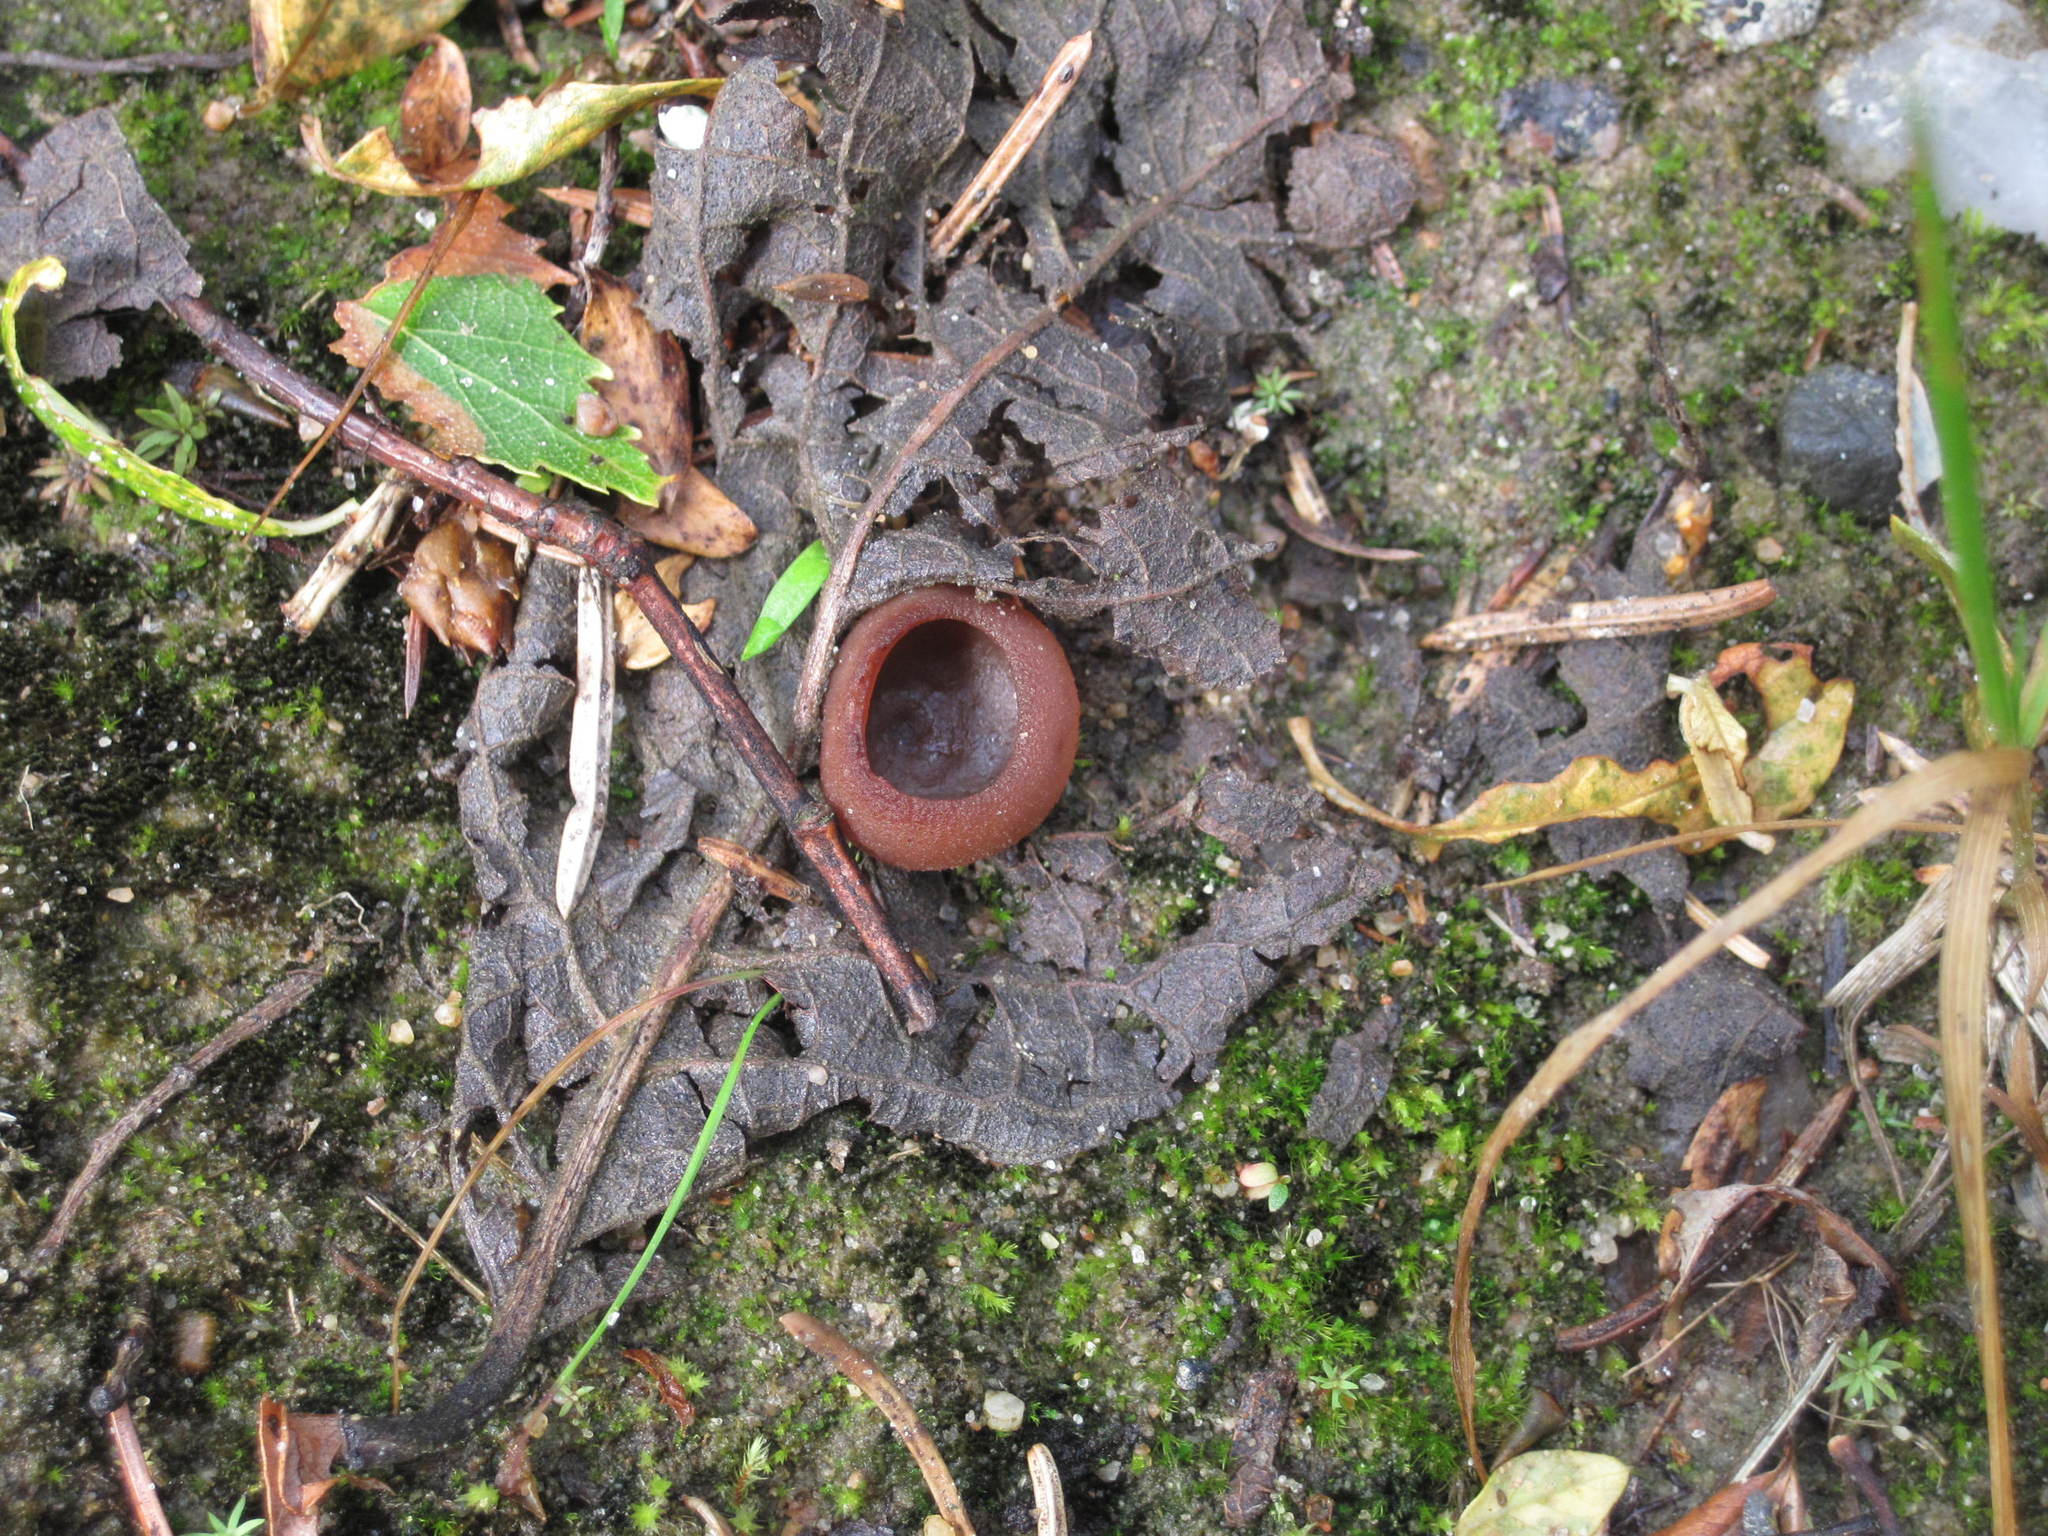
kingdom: Fungi
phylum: Ascomycota
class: Pezizomycetes
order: Pezizales
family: Pezizaceae
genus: Legaliana
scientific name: Legaliana badia
